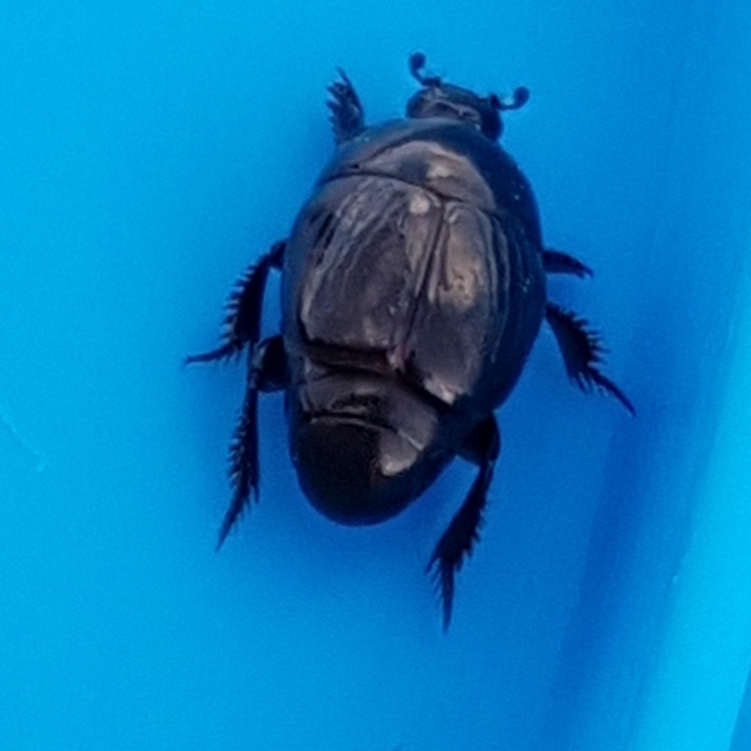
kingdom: Animalia
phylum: Arthropoda
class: Insecta
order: Coleoptera
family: Histeridae
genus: Hypocaccus
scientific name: Hypocaccus dimidiatus
